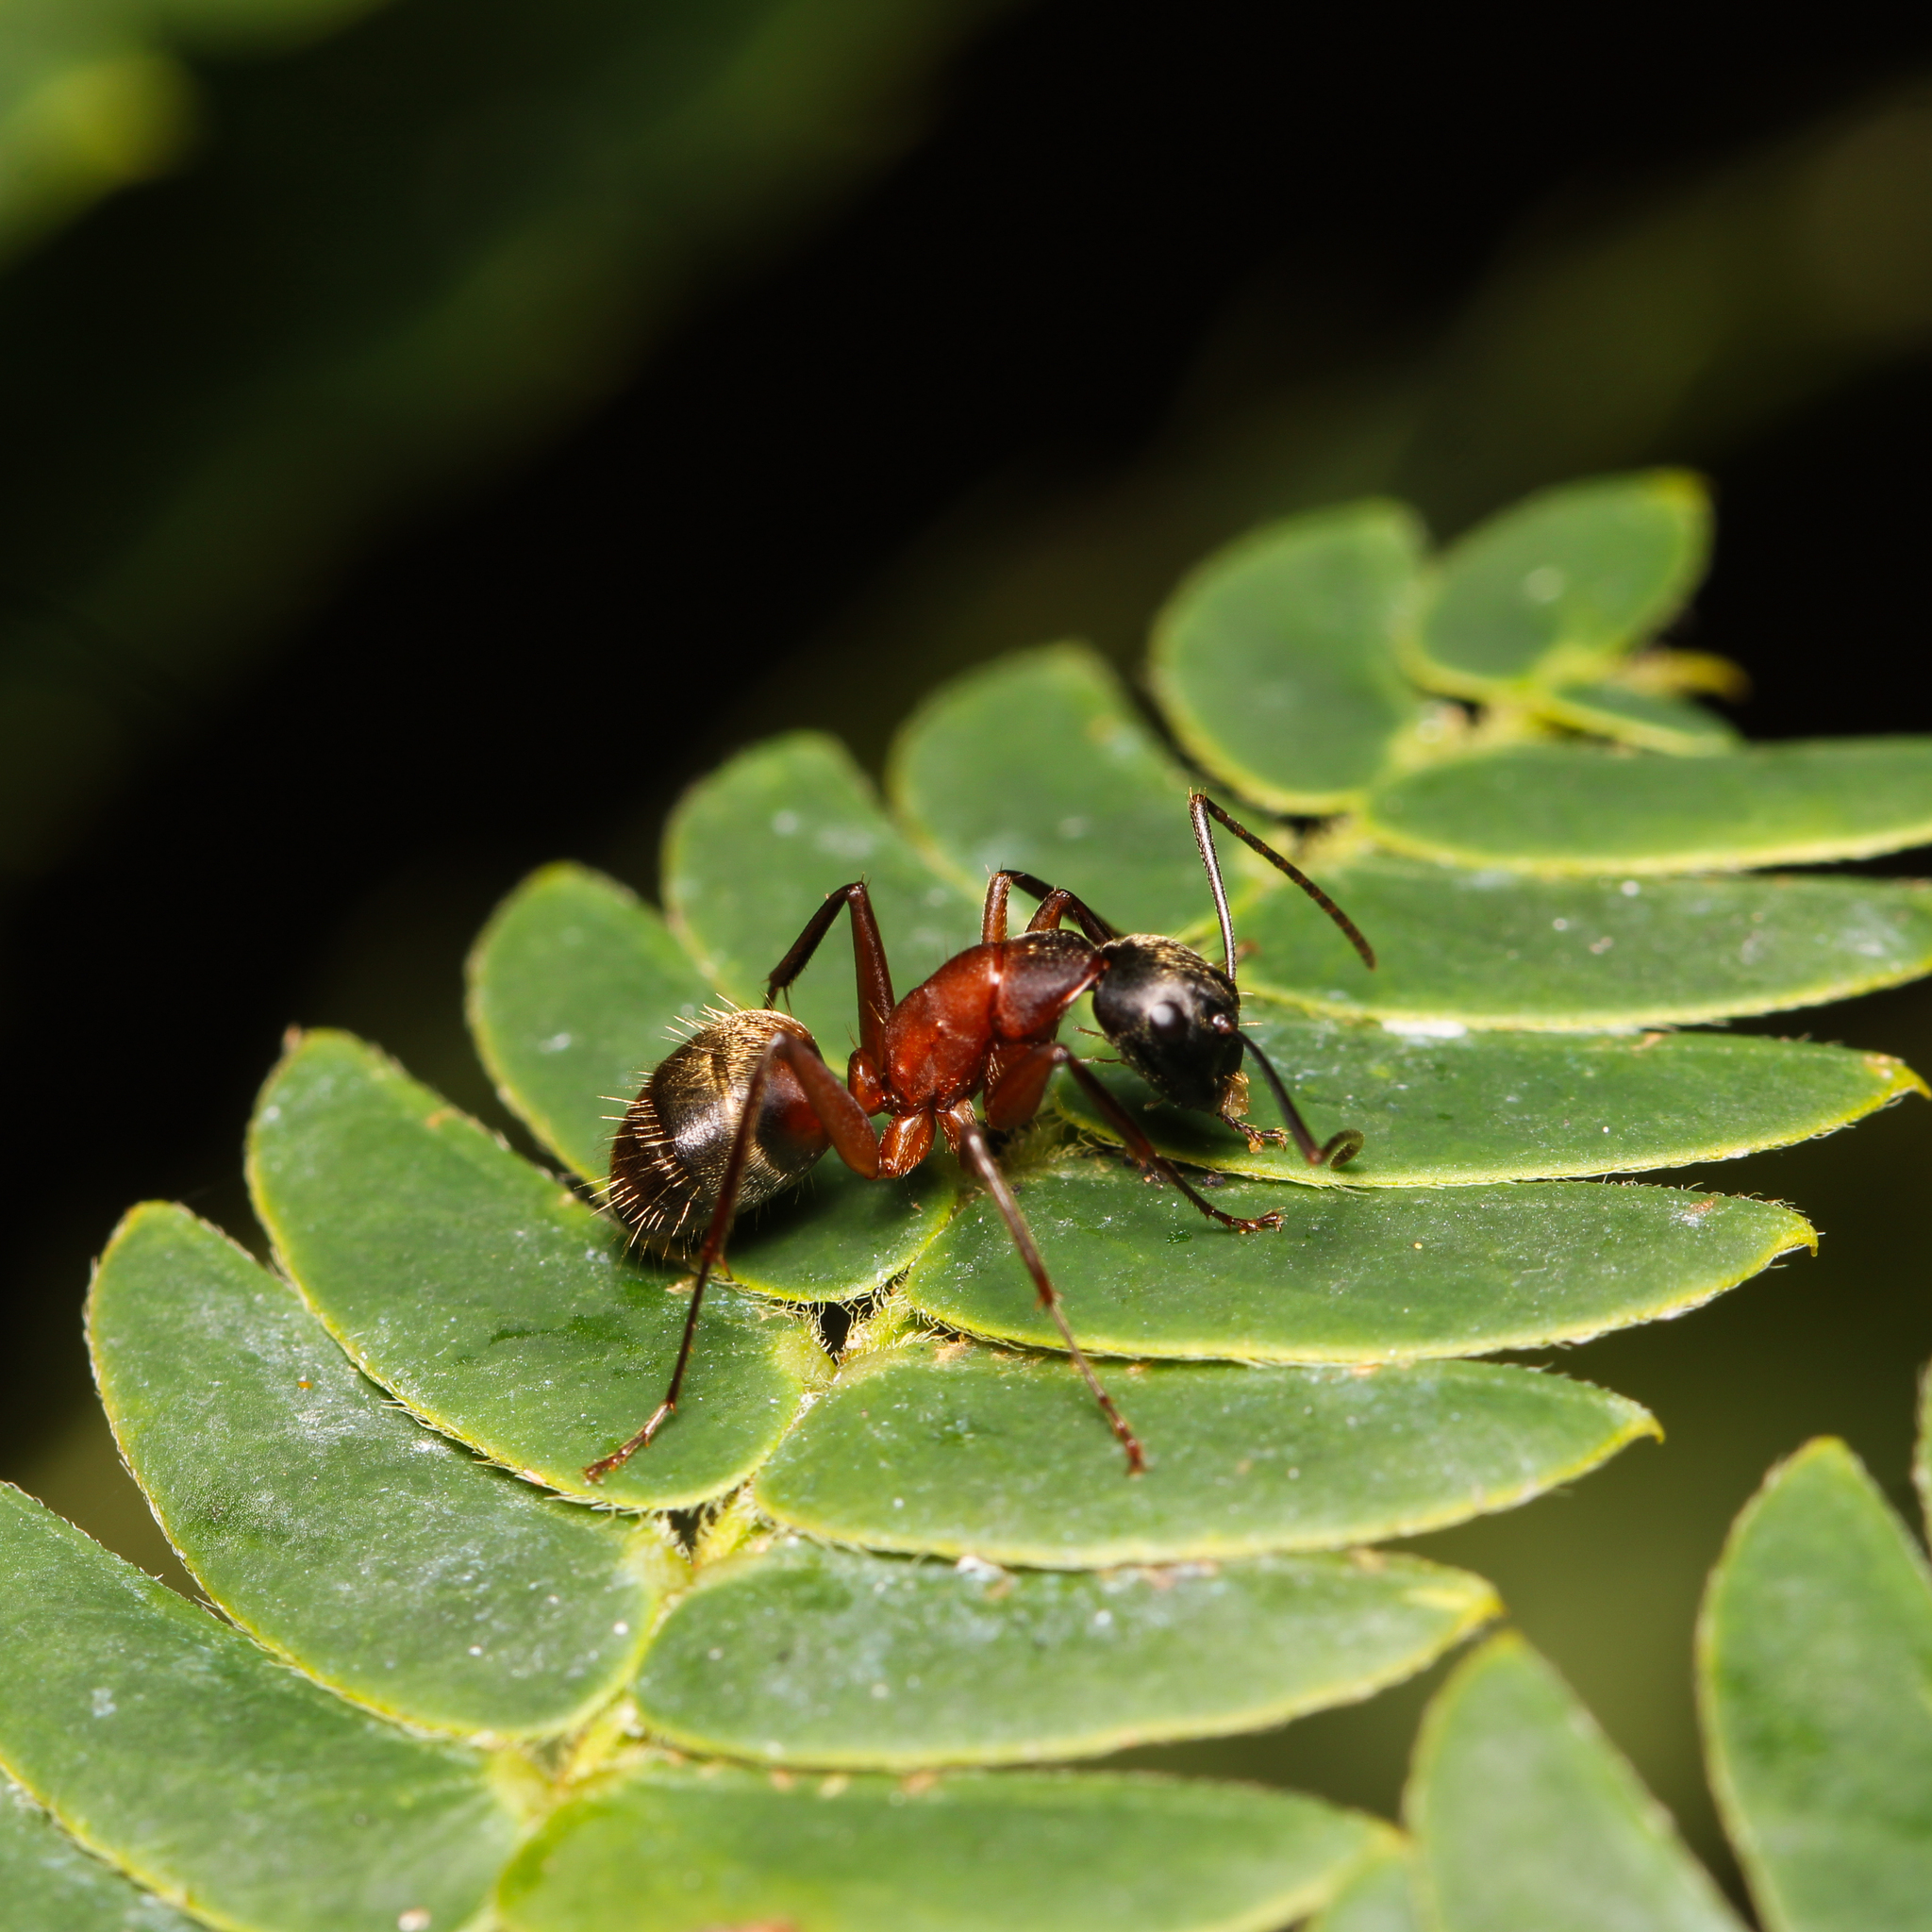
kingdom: Animalia
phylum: Arthropoda
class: Insecta
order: Hymenoptera
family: Formicidae
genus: Camponotus
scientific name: Camponotus chromaiodes
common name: Red carpenter ant
